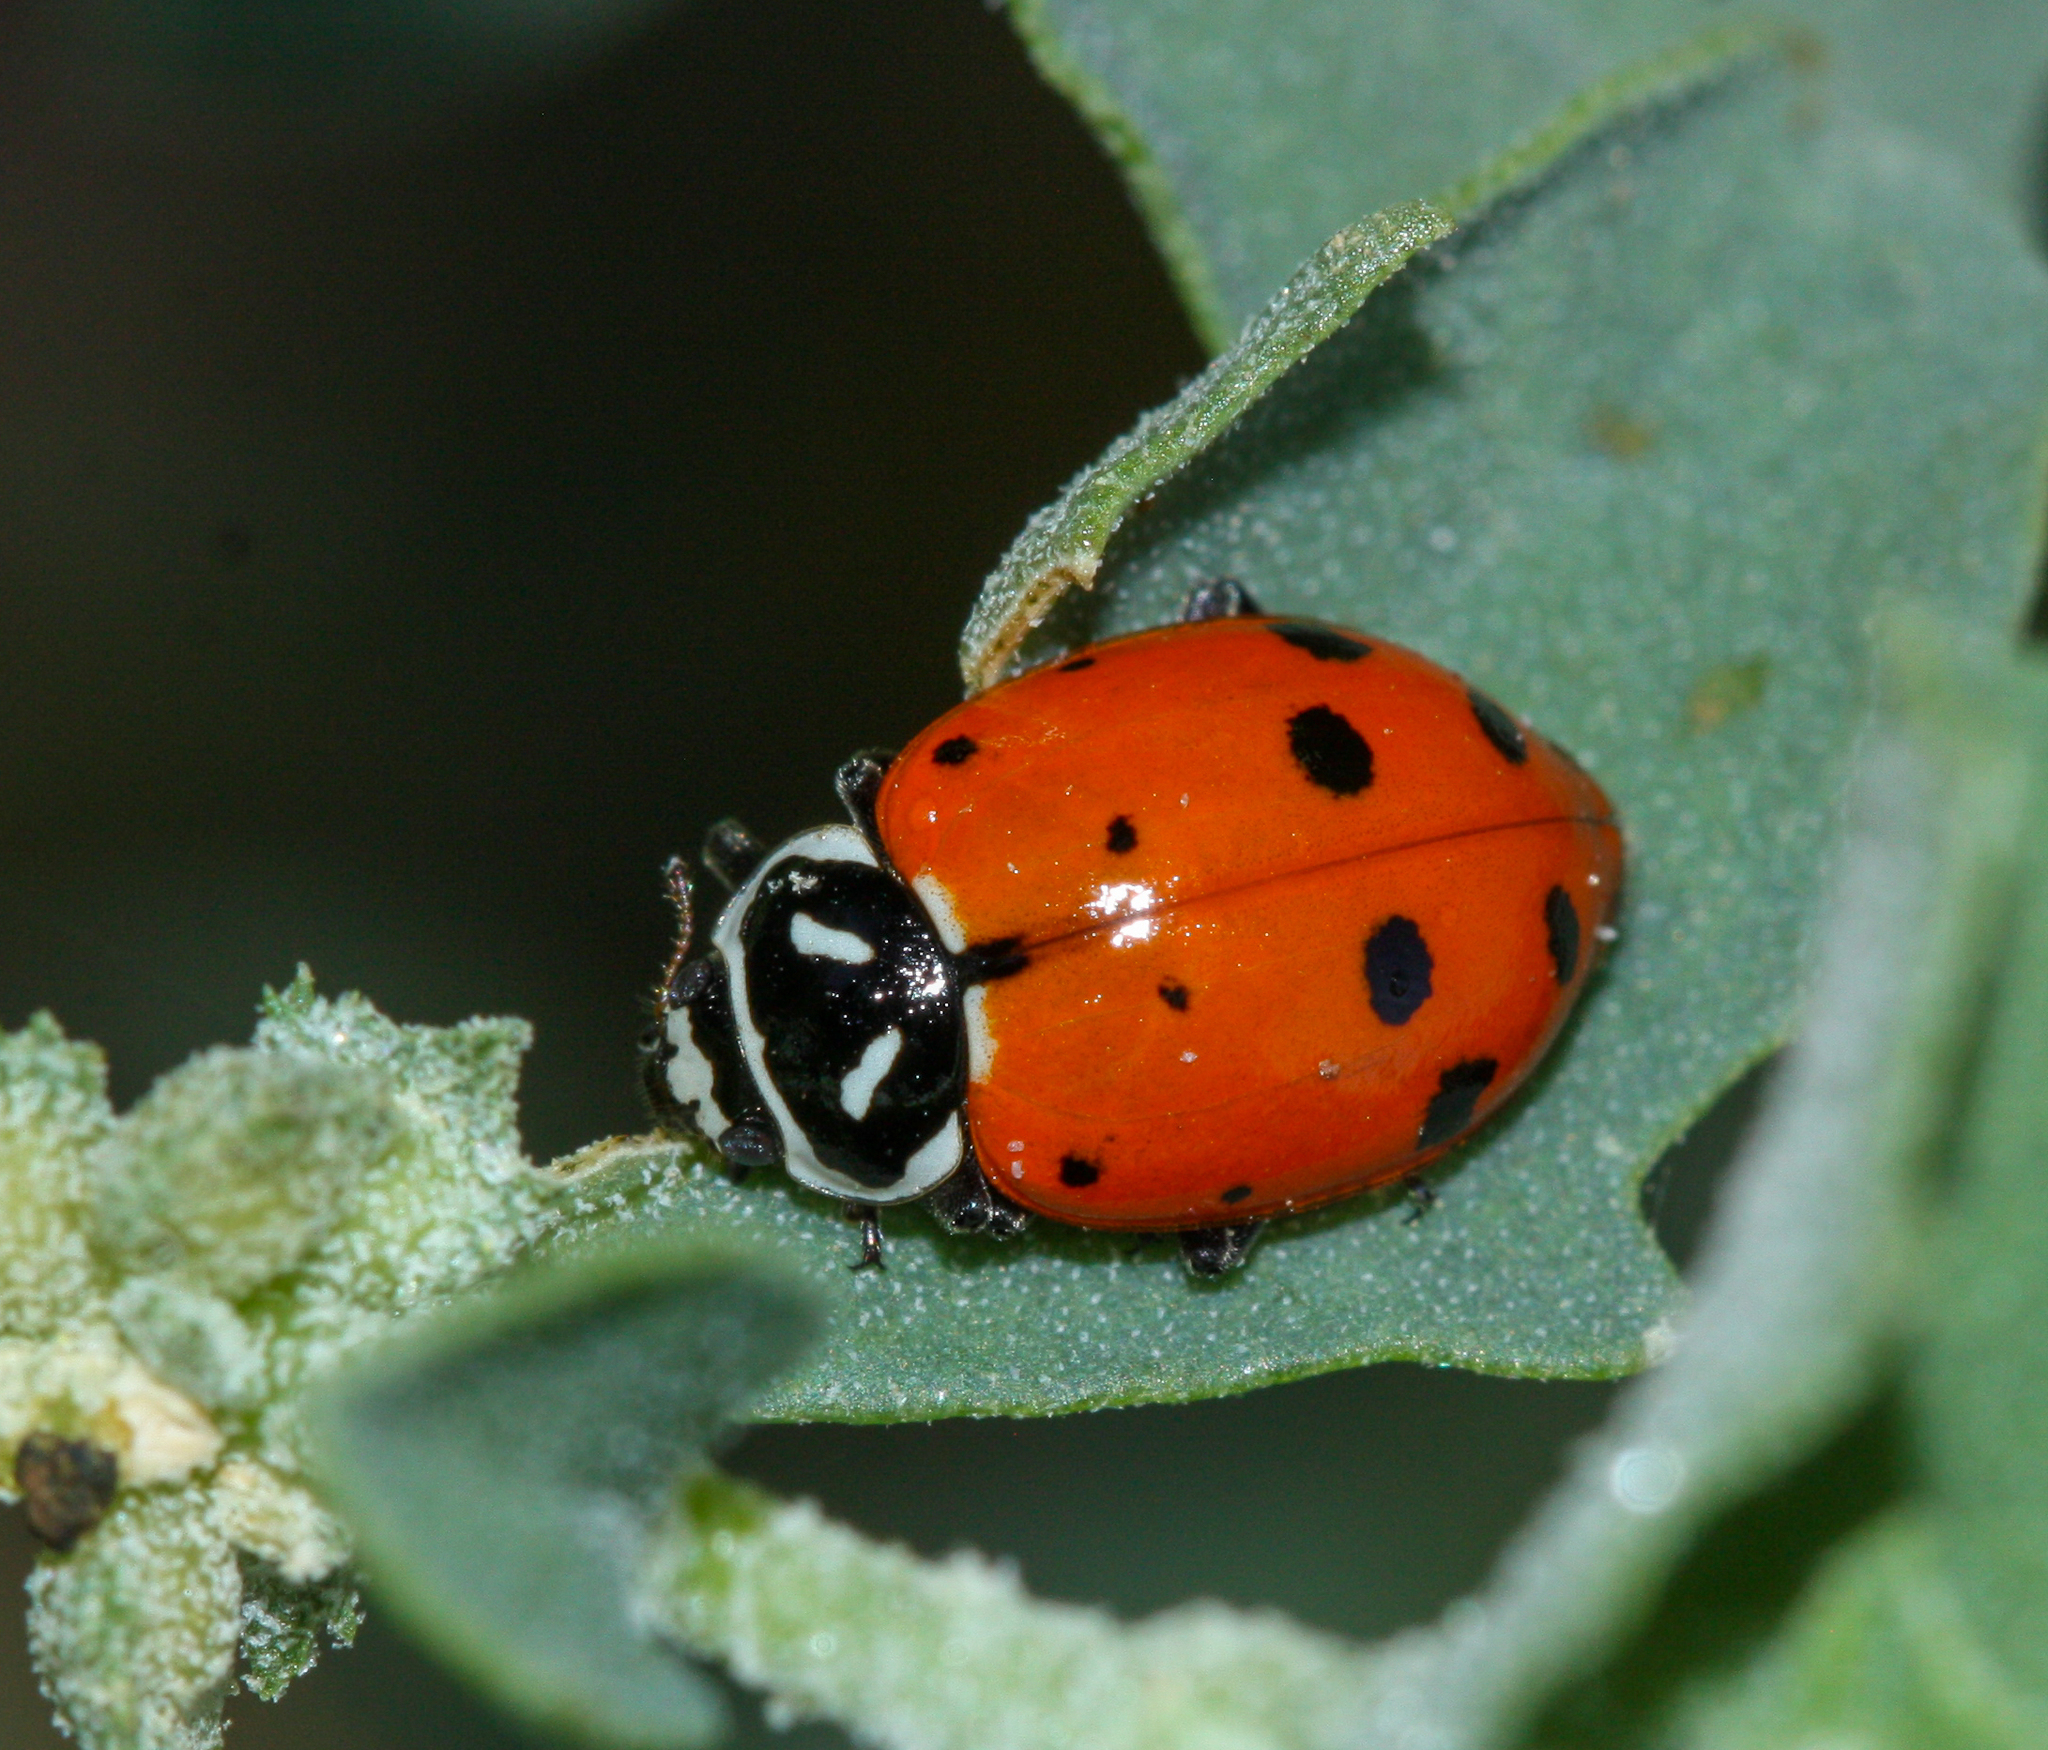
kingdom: Animalia
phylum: Arthropoda
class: Insecta
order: Coleoptera
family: Coccinellidae
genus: Hippodamia
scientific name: Hippodamia convergens
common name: Convergent lady beetle
